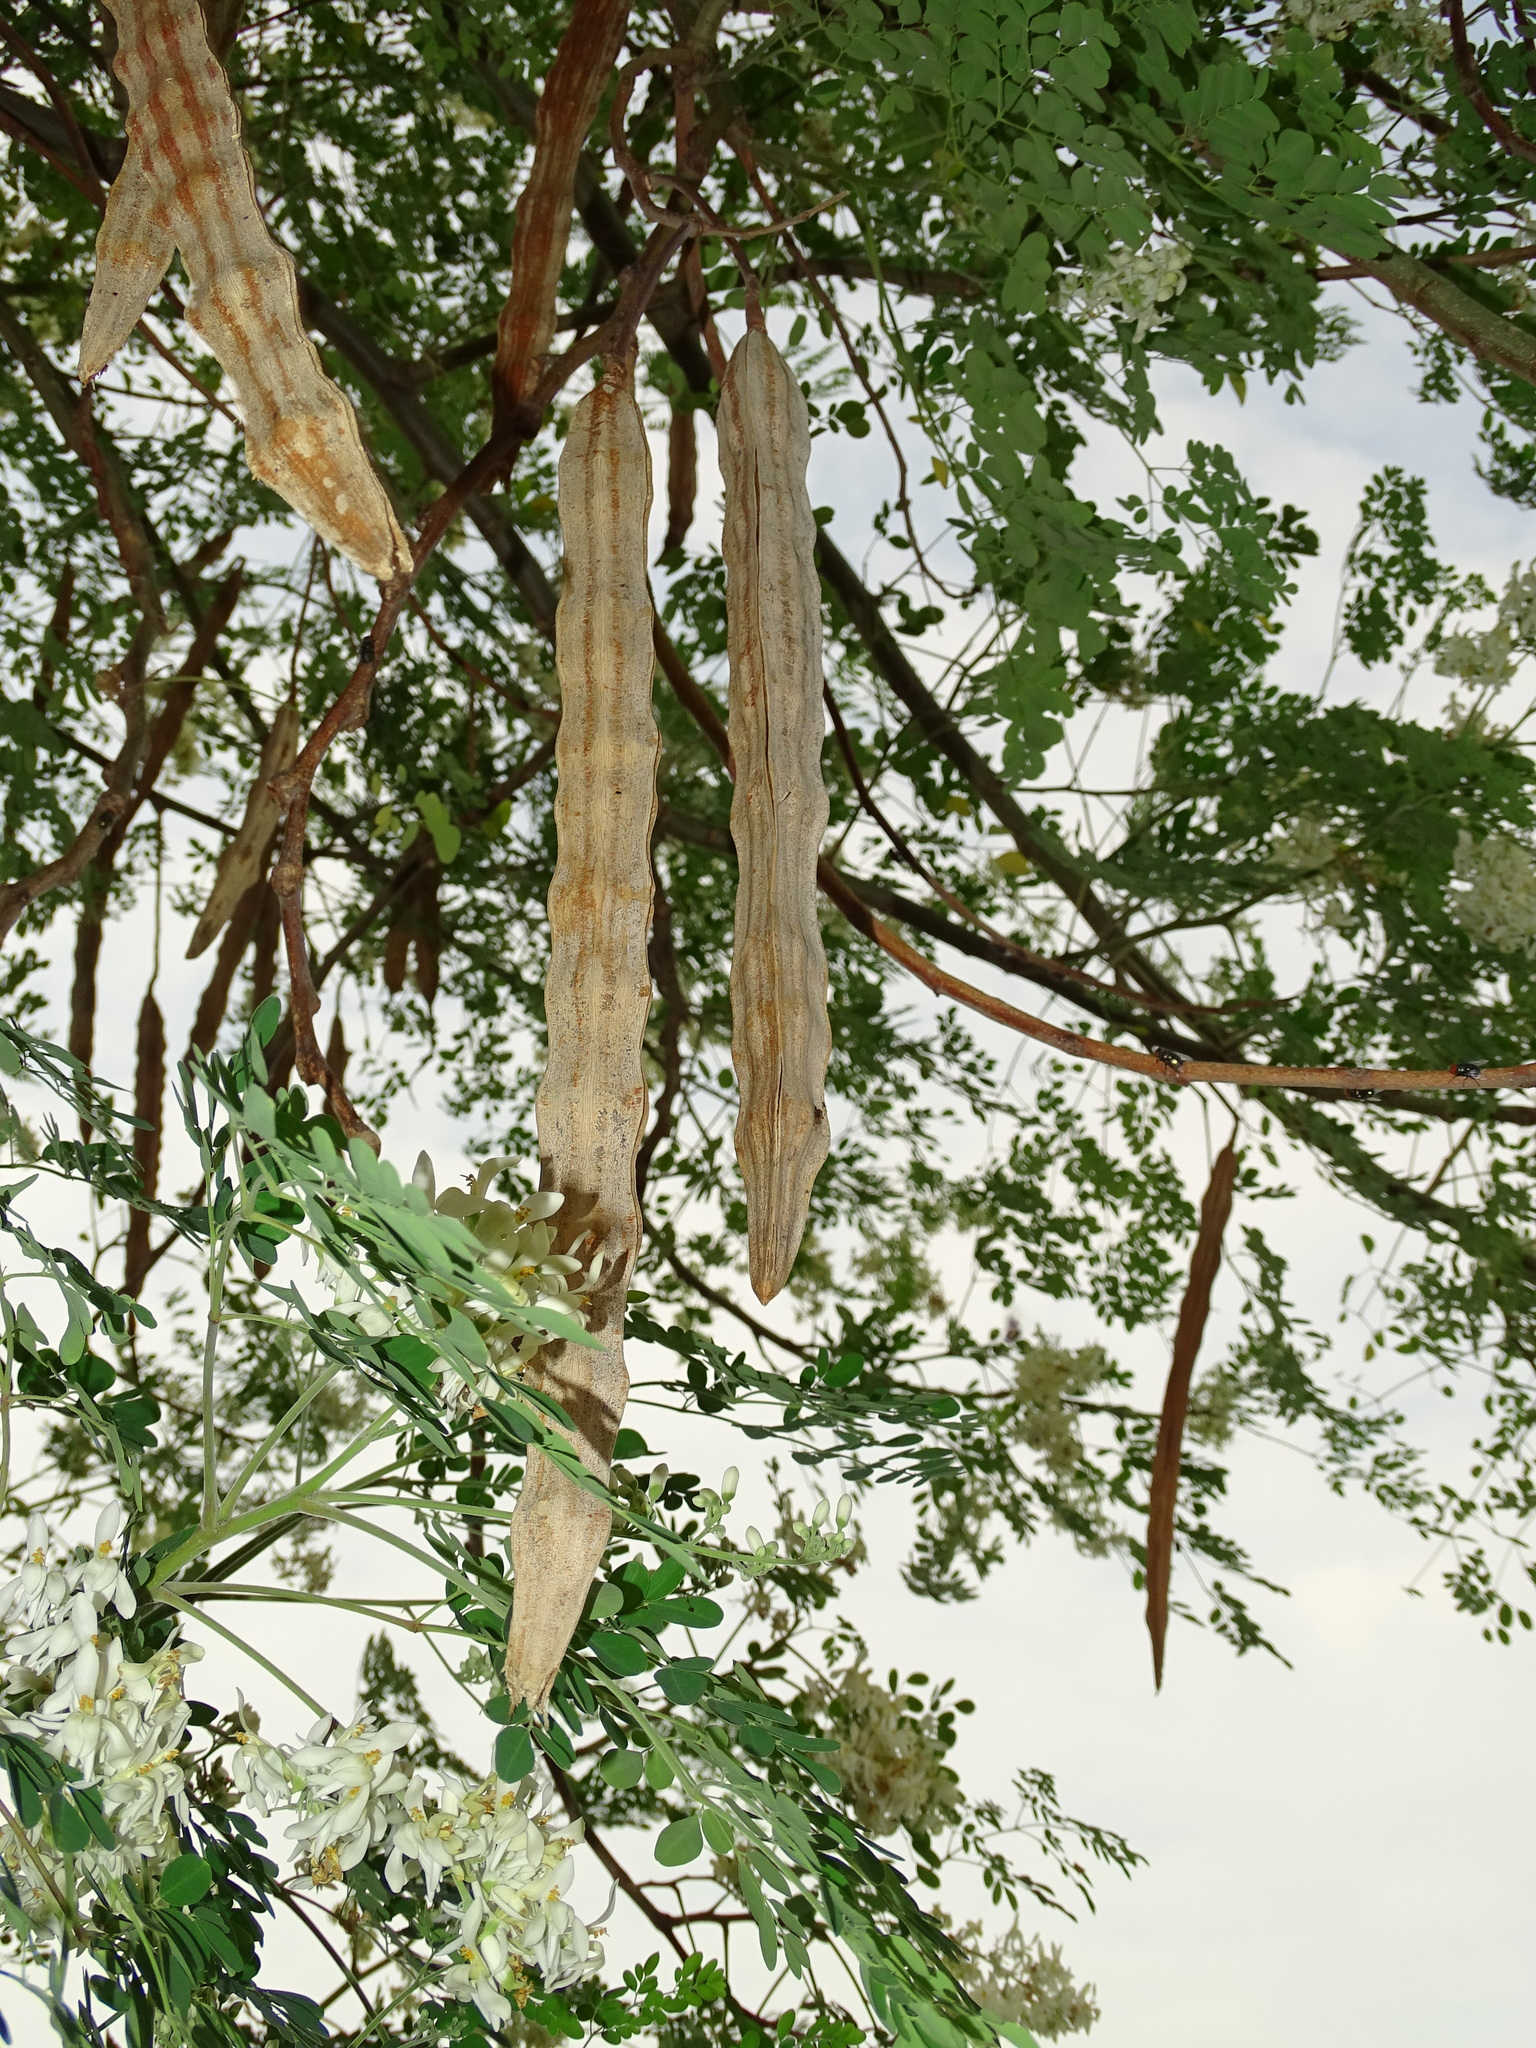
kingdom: Plantae
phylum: Tracheophyta
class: Magnoliopsida
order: Brassicales
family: Moringaceae
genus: Moringa
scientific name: Moringa oleifera
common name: Horseradish-tree
